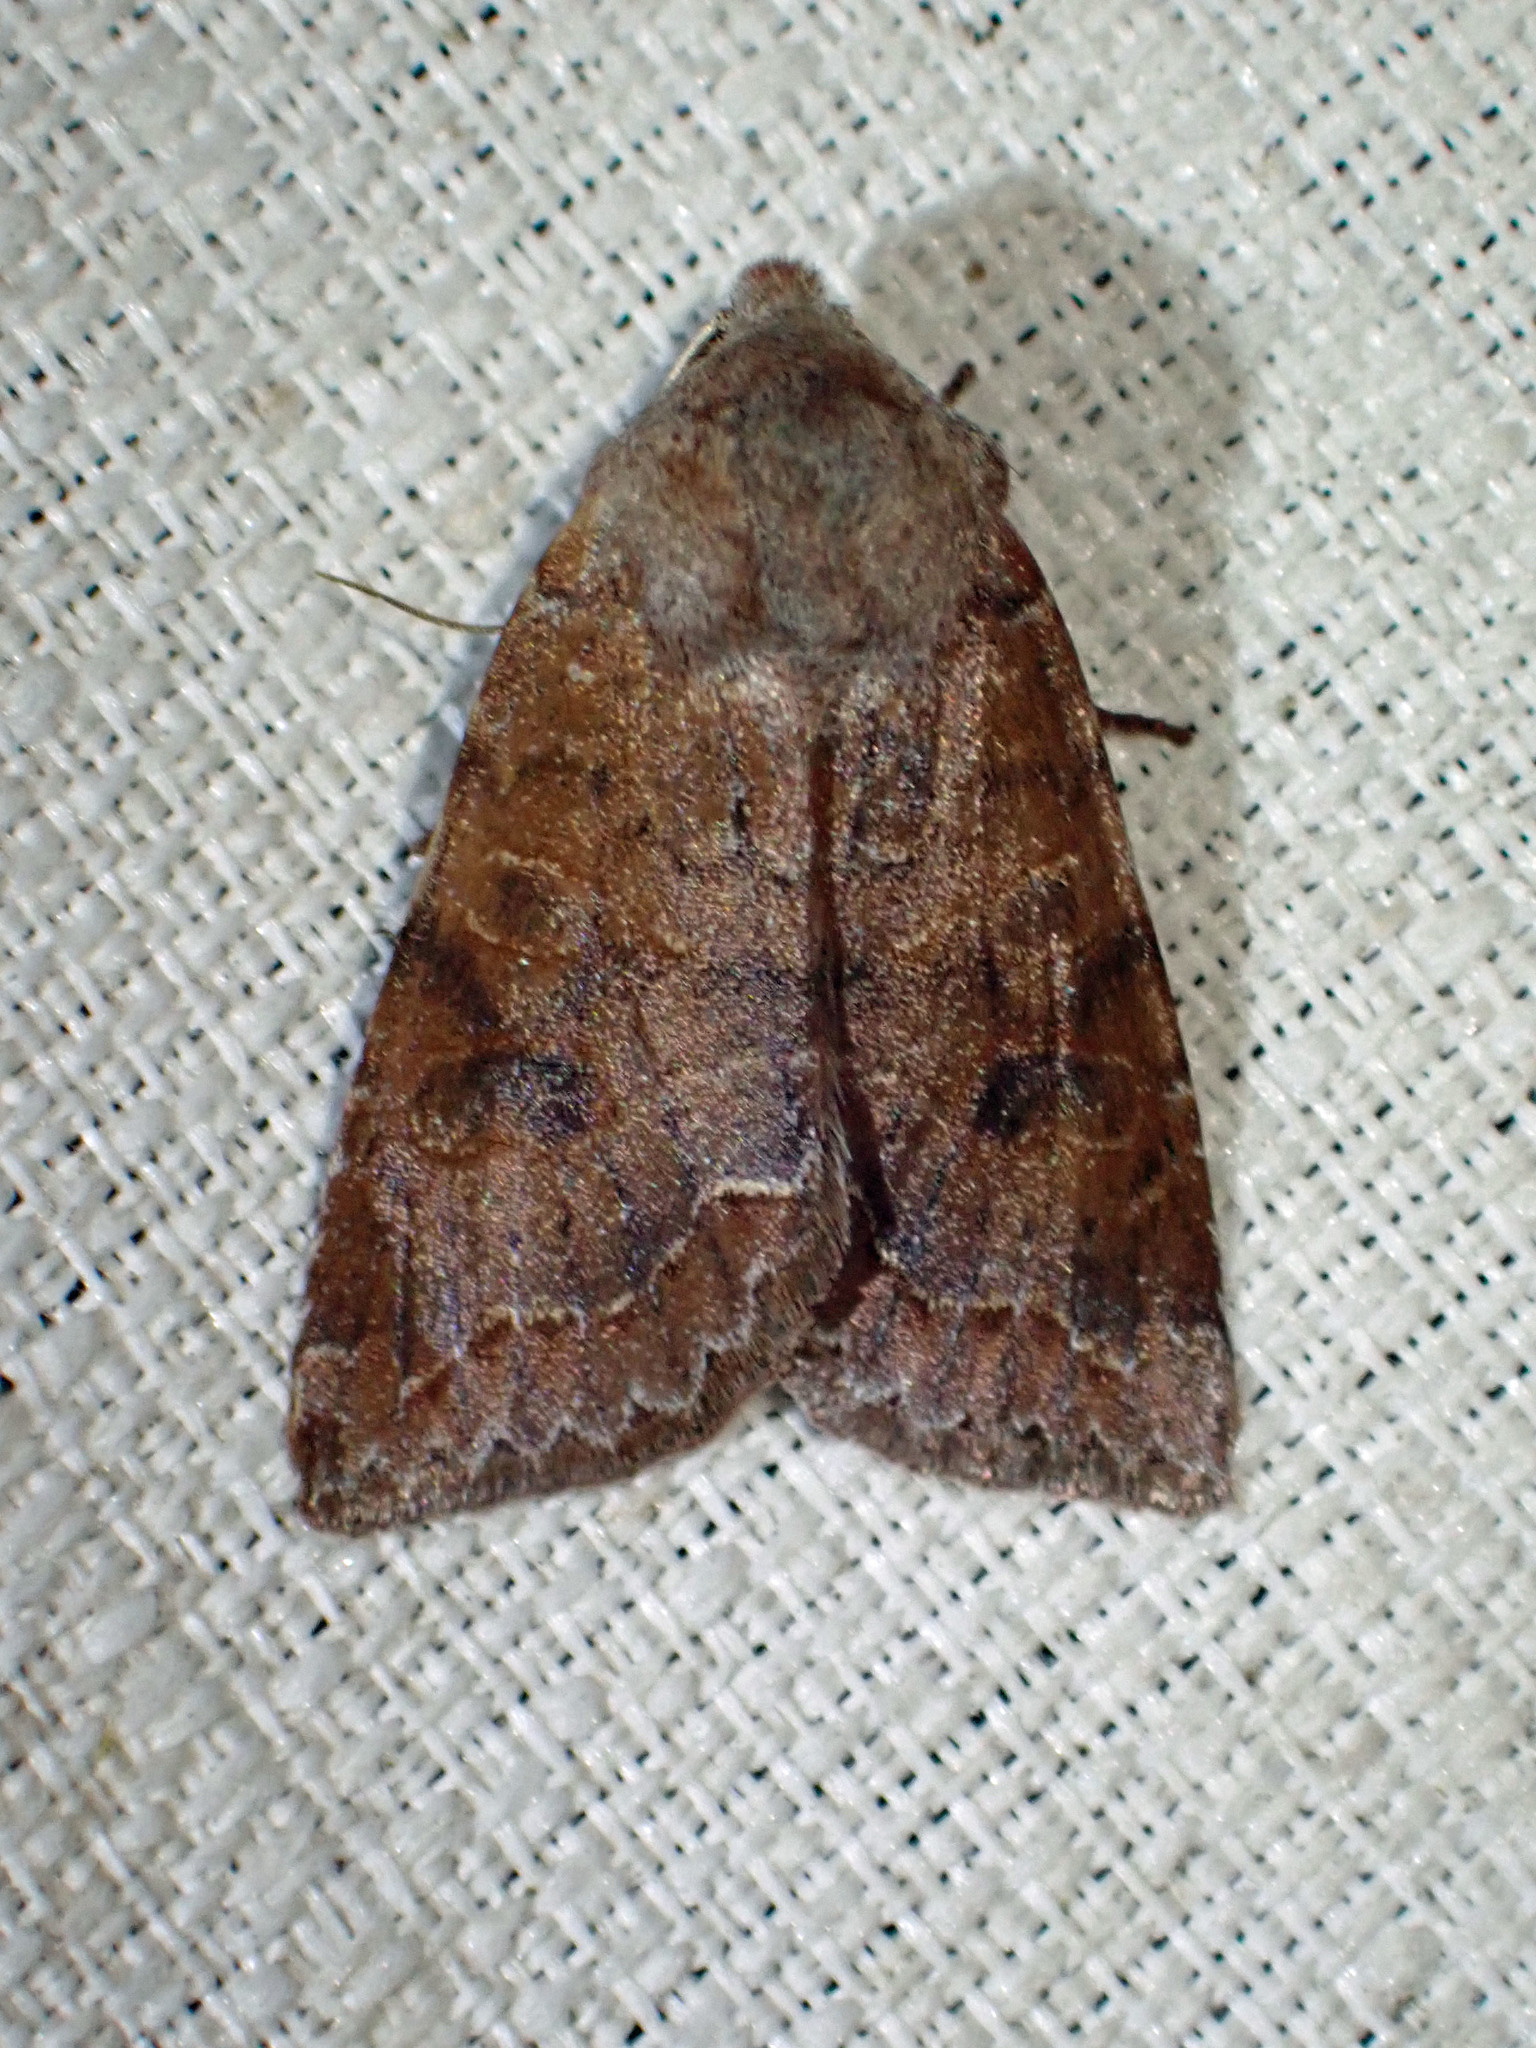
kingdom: Animalia
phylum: Arthropoda
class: Insecta
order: Lepidoptera
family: Noctuidae
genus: Orthosia
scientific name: Orthosia revicta
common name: Rusty whitesided caterpillar
